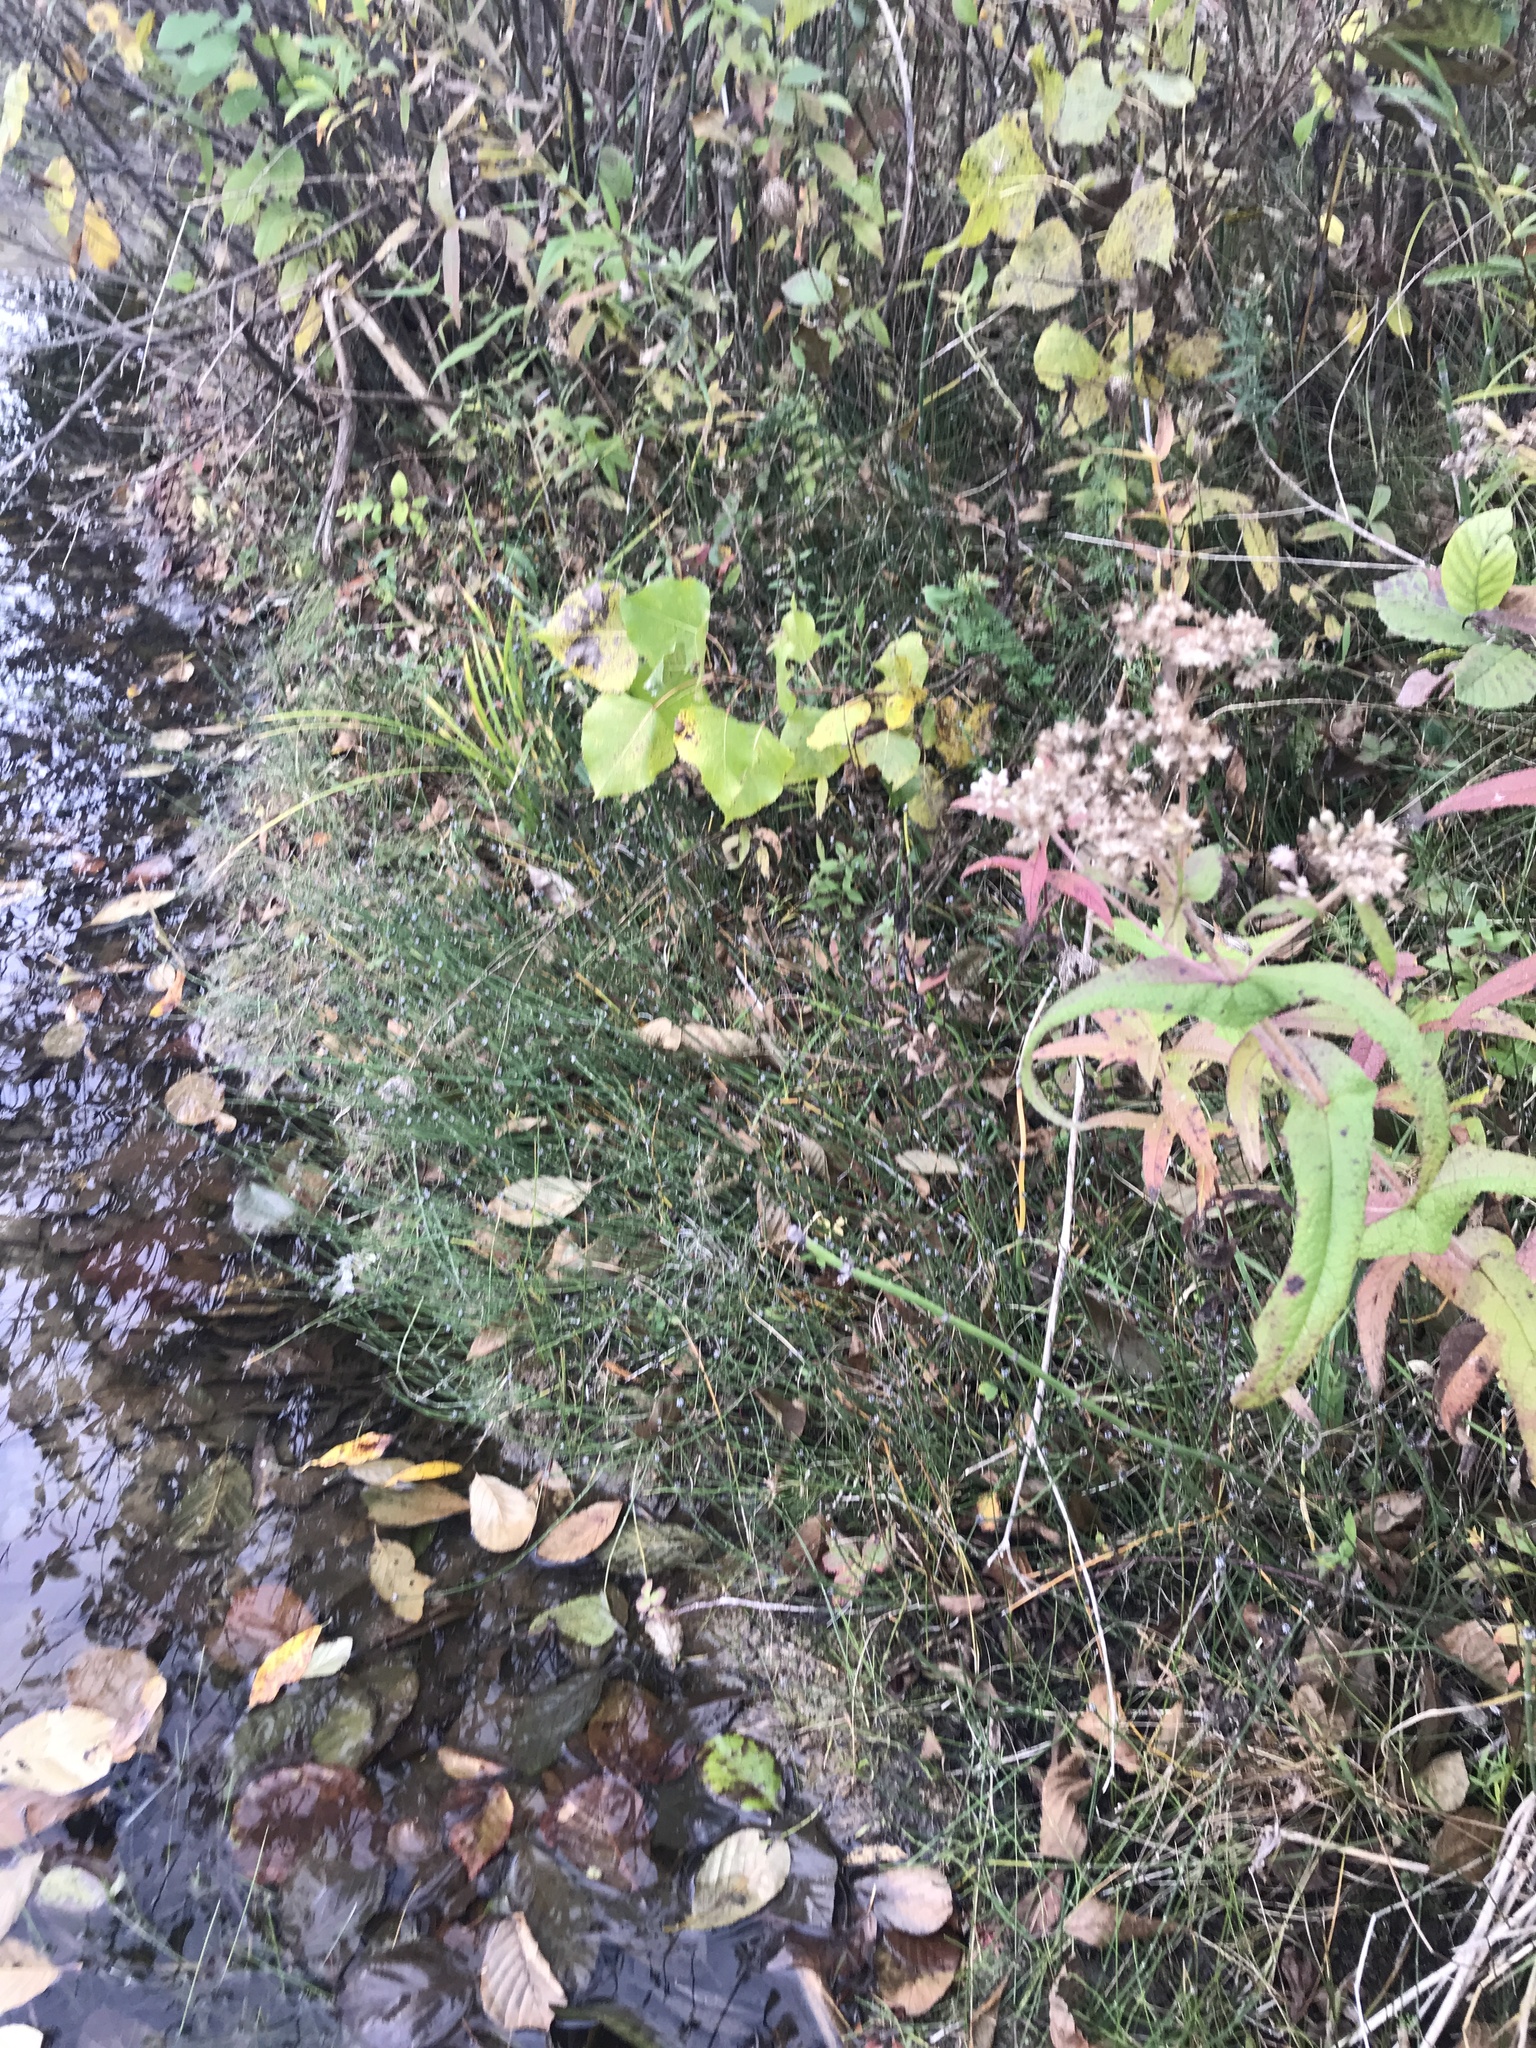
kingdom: Plantae
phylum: Tracheophyta
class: Polypodiopsida
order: Equisetales
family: Equisetaceae
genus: Equisetum
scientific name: Equisetum variegatum
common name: Variegated horsetail
